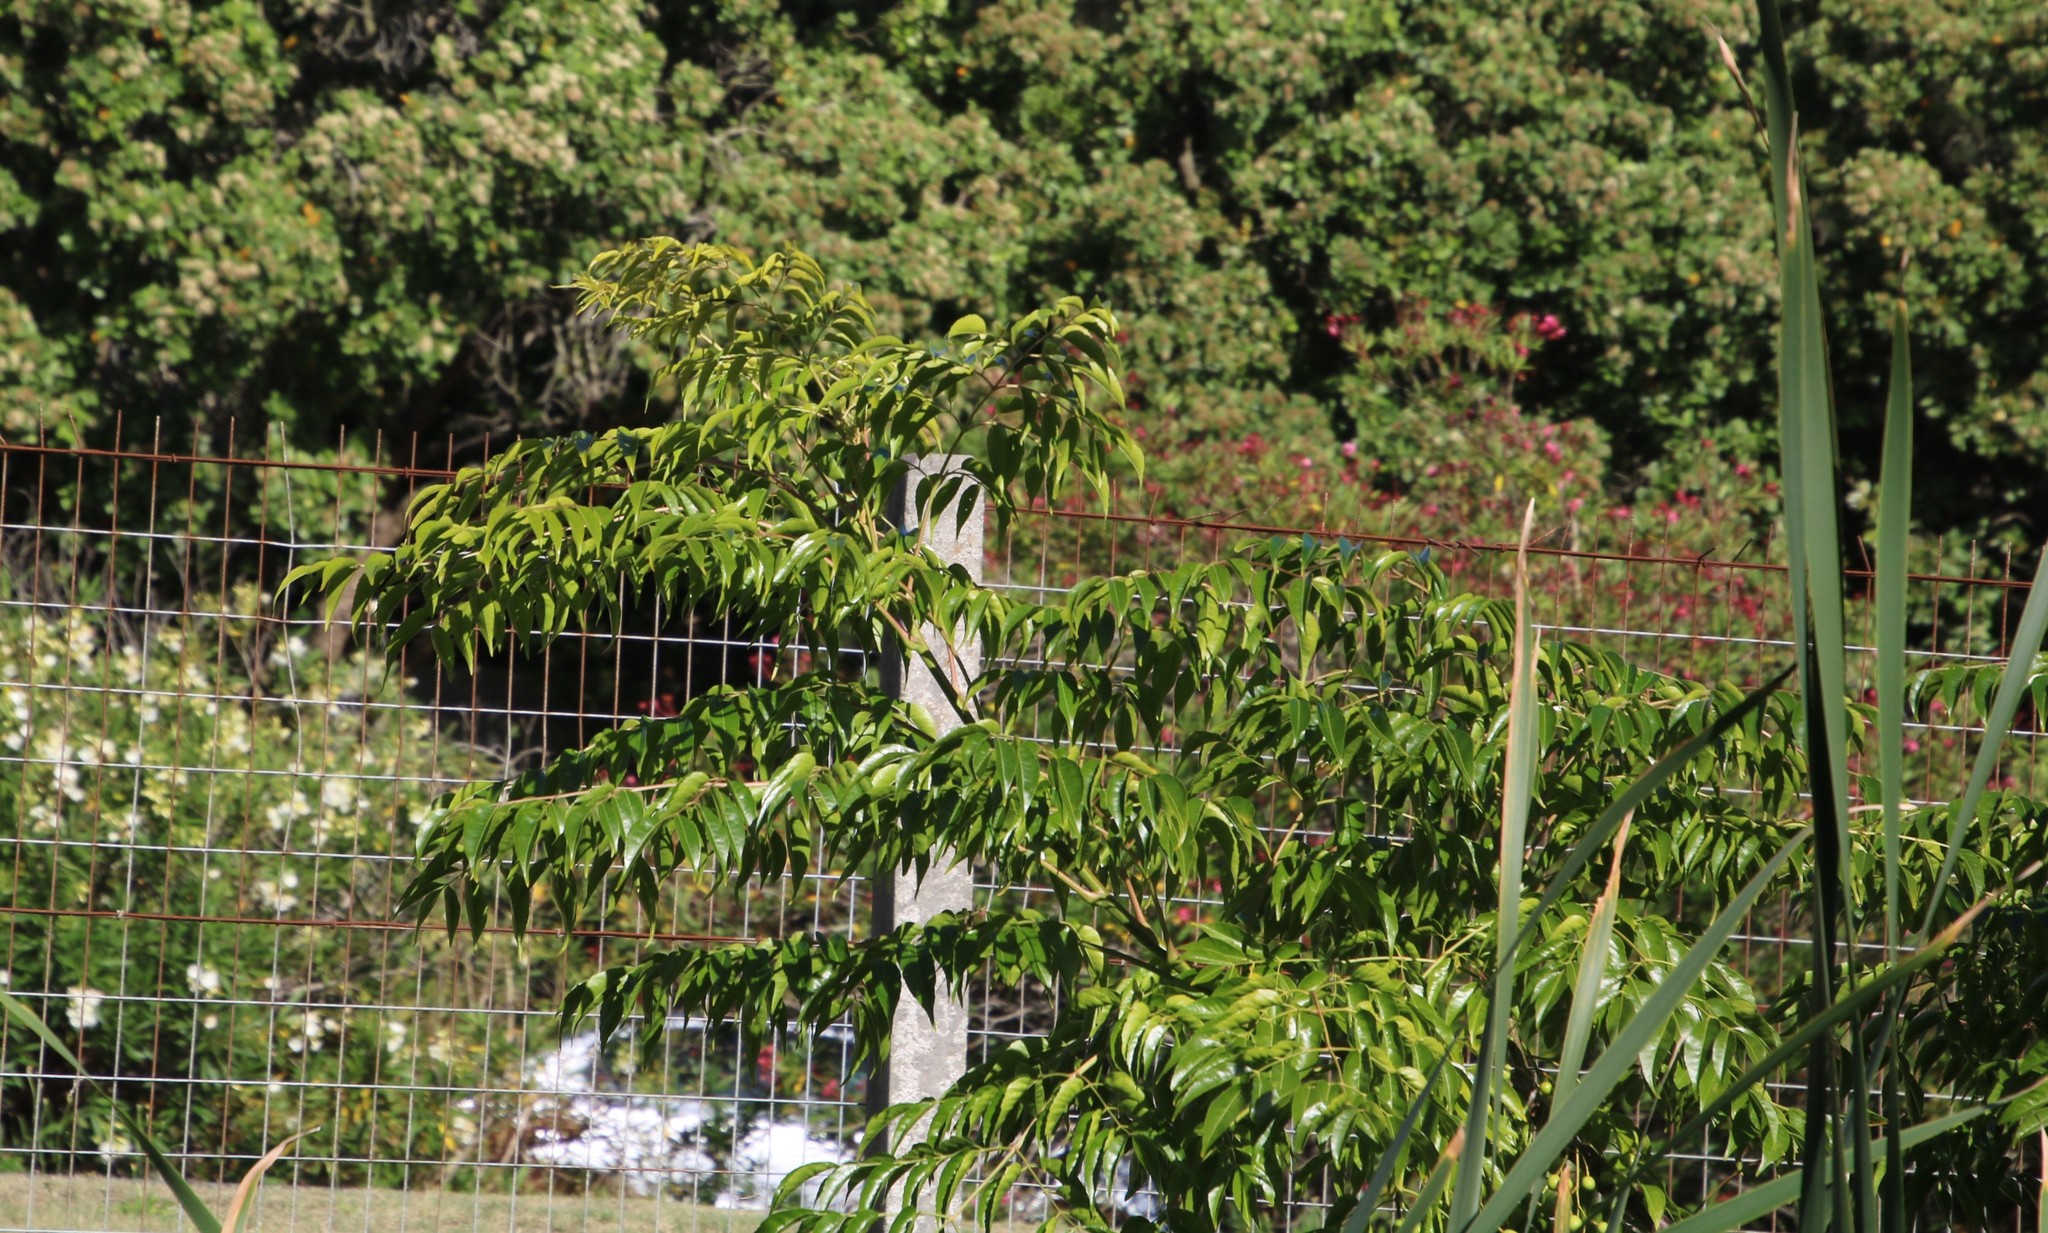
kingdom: Plantae
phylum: Tracheophyta
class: Magnoliopsida
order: Sapindales
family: Meliaceae
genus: Melia
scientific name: Melia azedarach
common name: Chinaberrytree
